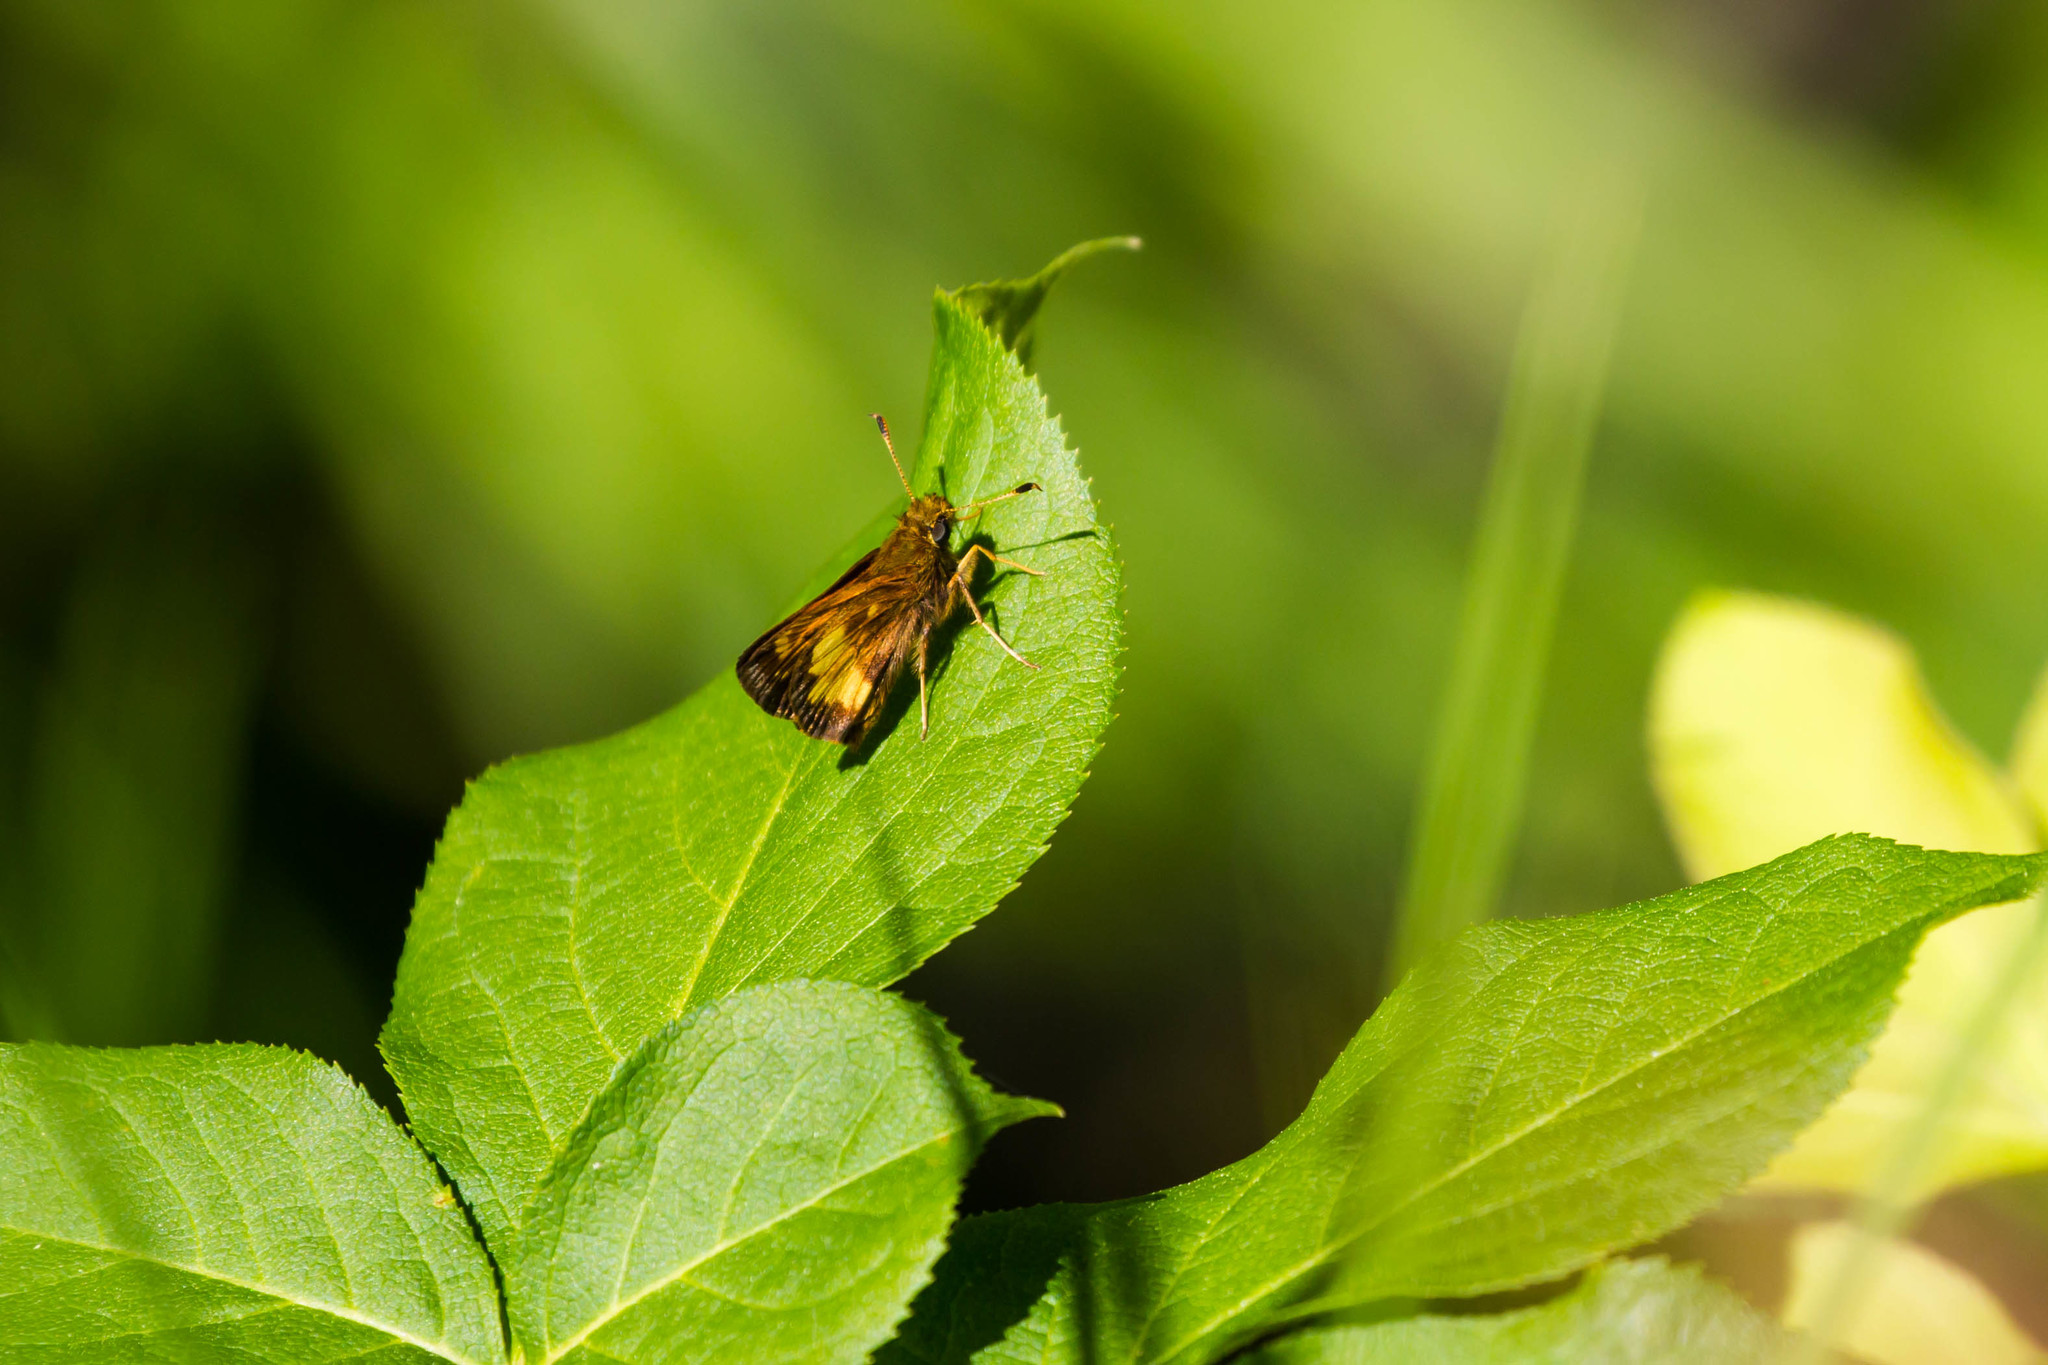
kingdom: Animalia
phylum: Arthropoda
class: Insecta
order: Lepidoptera
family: Hesperiidae
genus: Lon
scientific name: Lon hobomok
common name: Hobomok skipper
